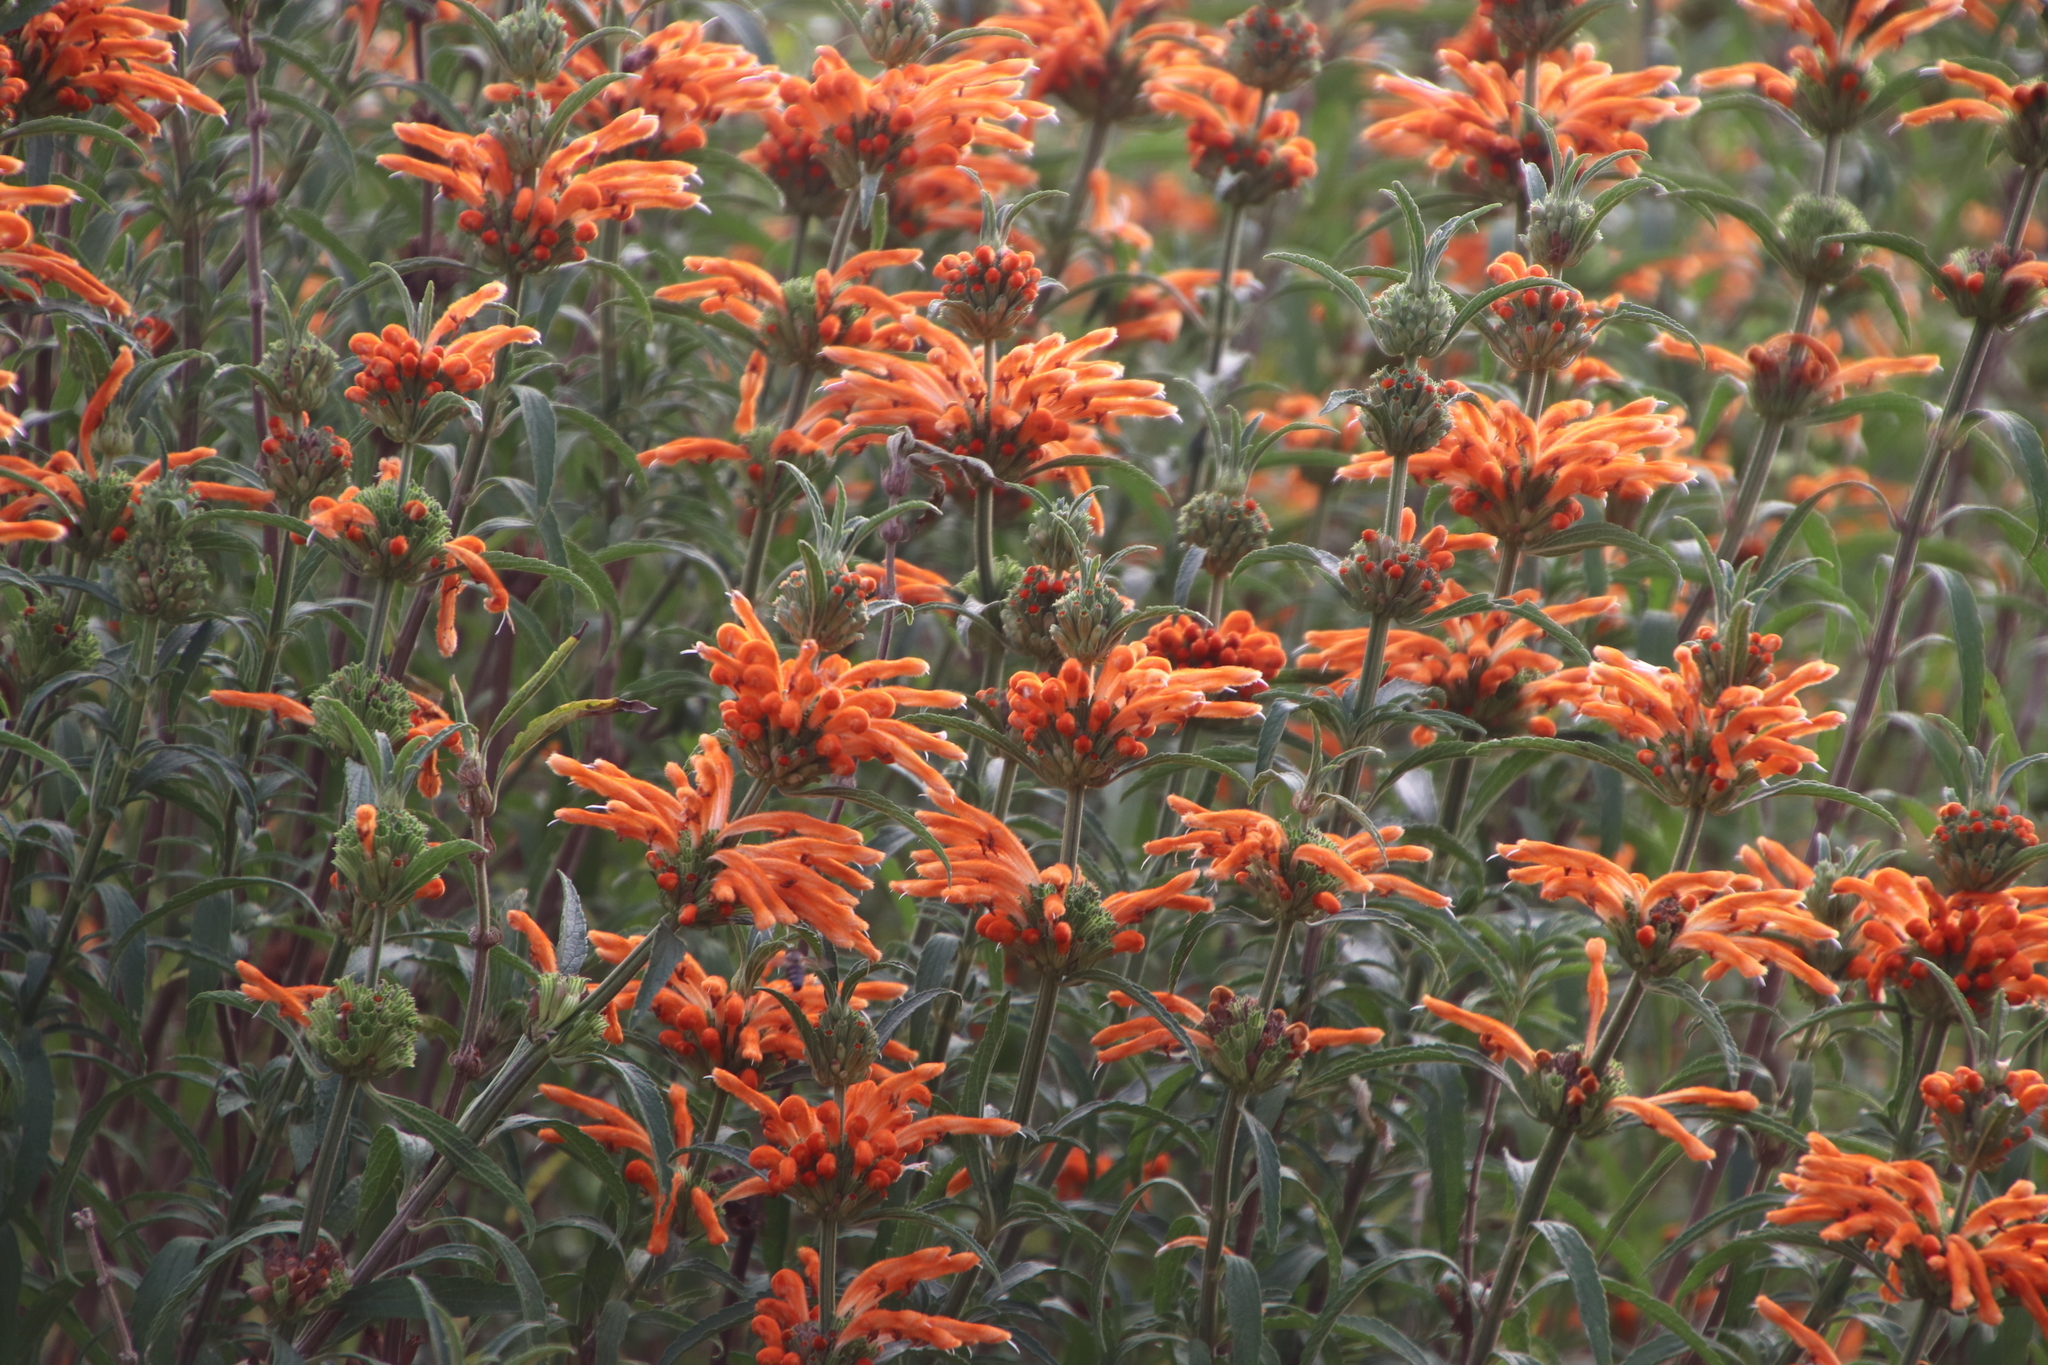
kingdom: Plantae
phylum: Tracheophyta
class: Magnoliopsida
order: Lamiales
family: Lamiaceae
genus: Leonotis
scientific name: Leonotis leonurus
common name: Lion's ear
